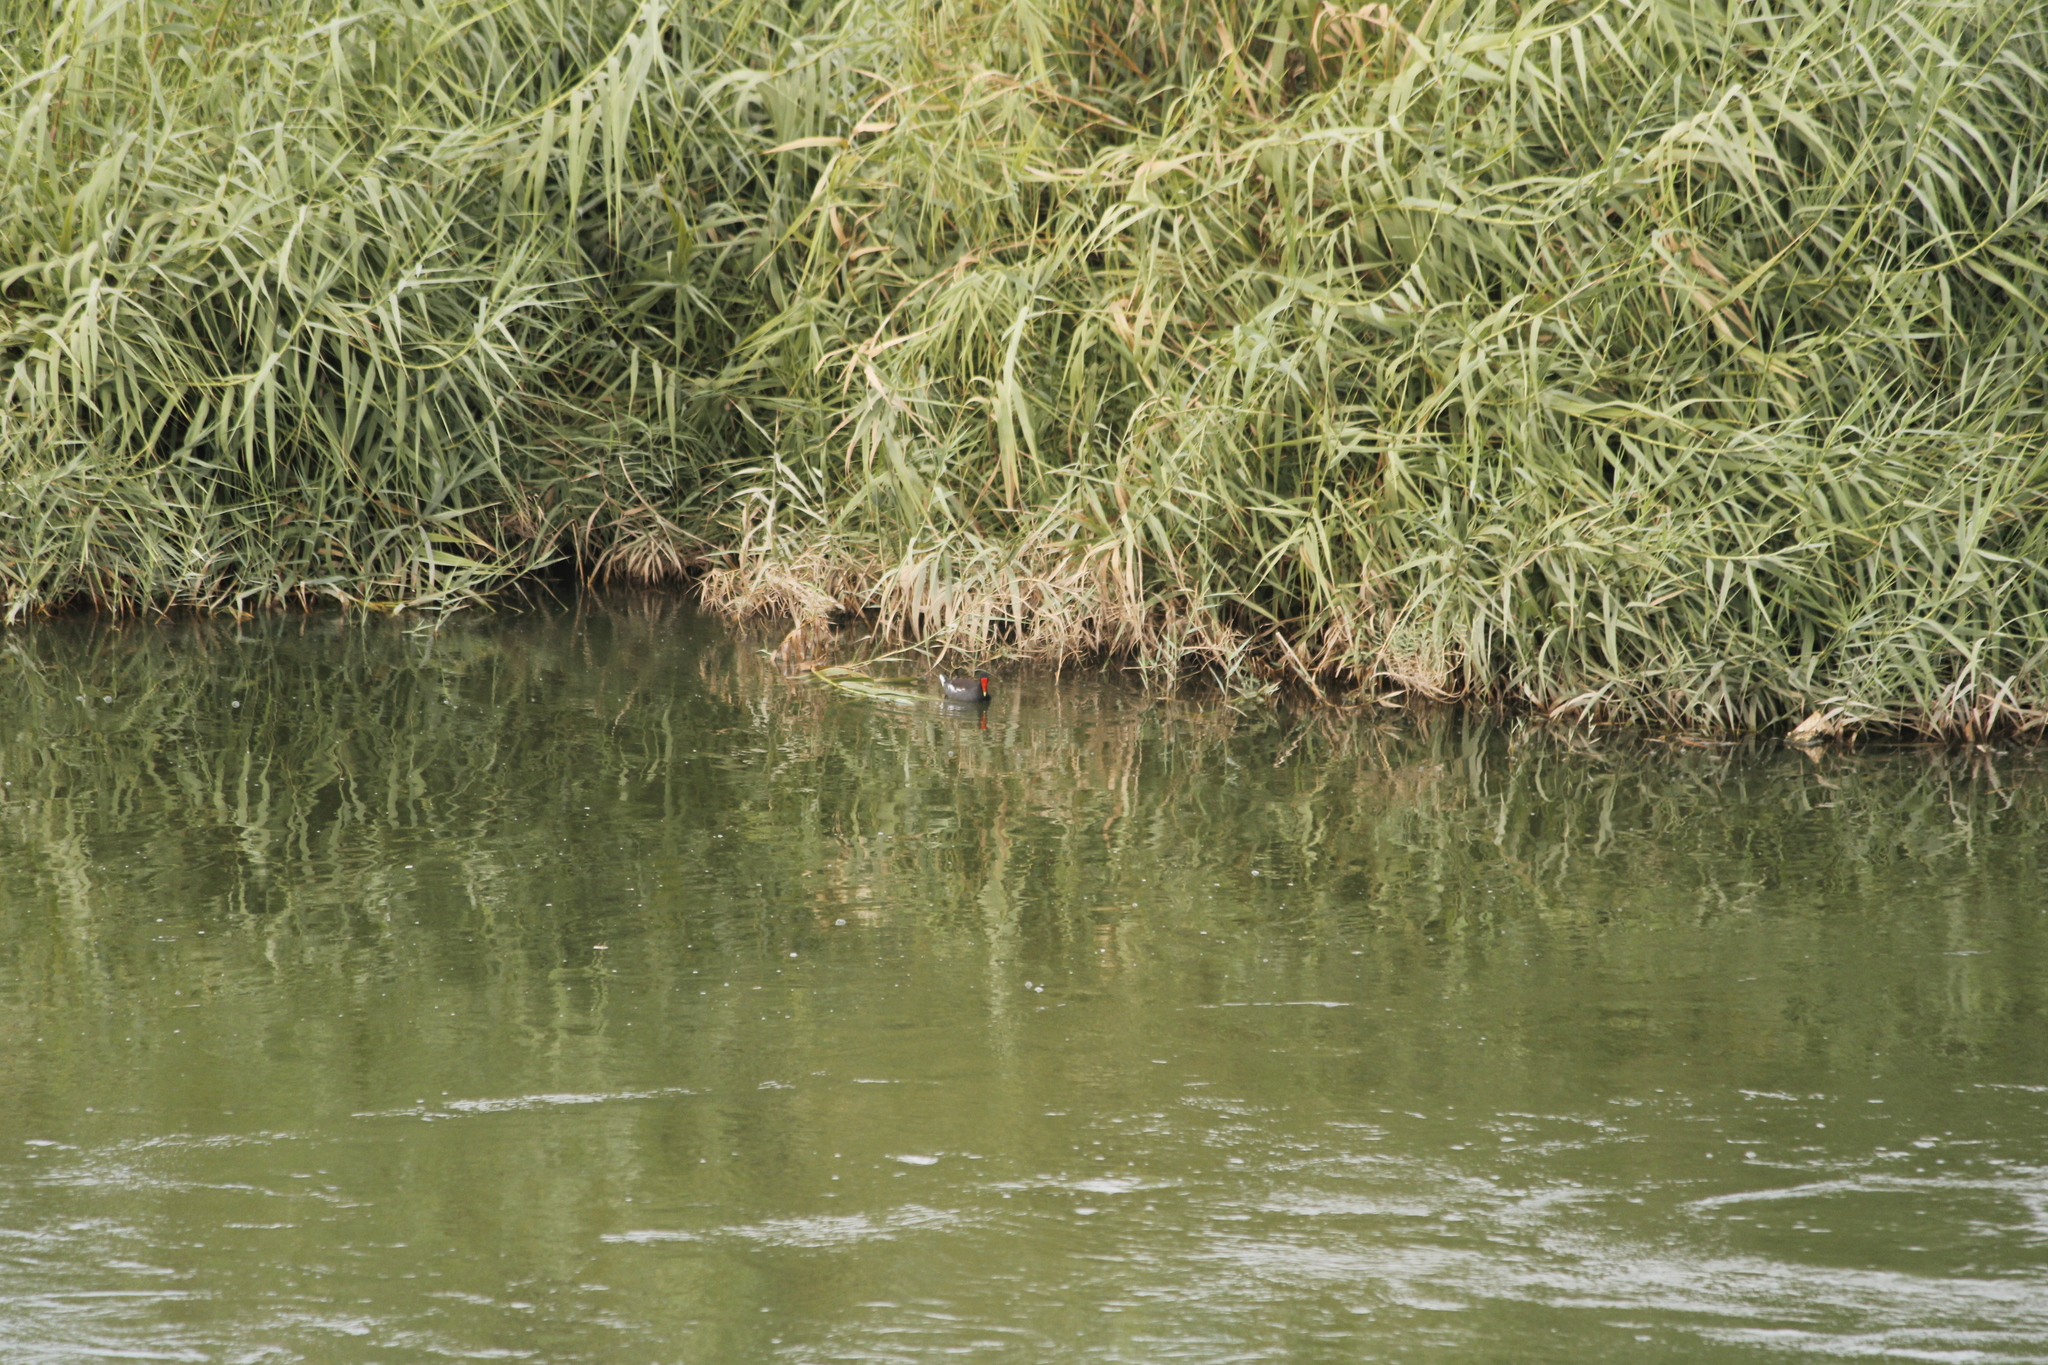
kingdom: Animalia
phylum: Chordata
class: Aves
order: Gruiformes
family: Rallidae
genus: Gallinula
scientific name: Gallinula chloropus
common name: Common moorhen
